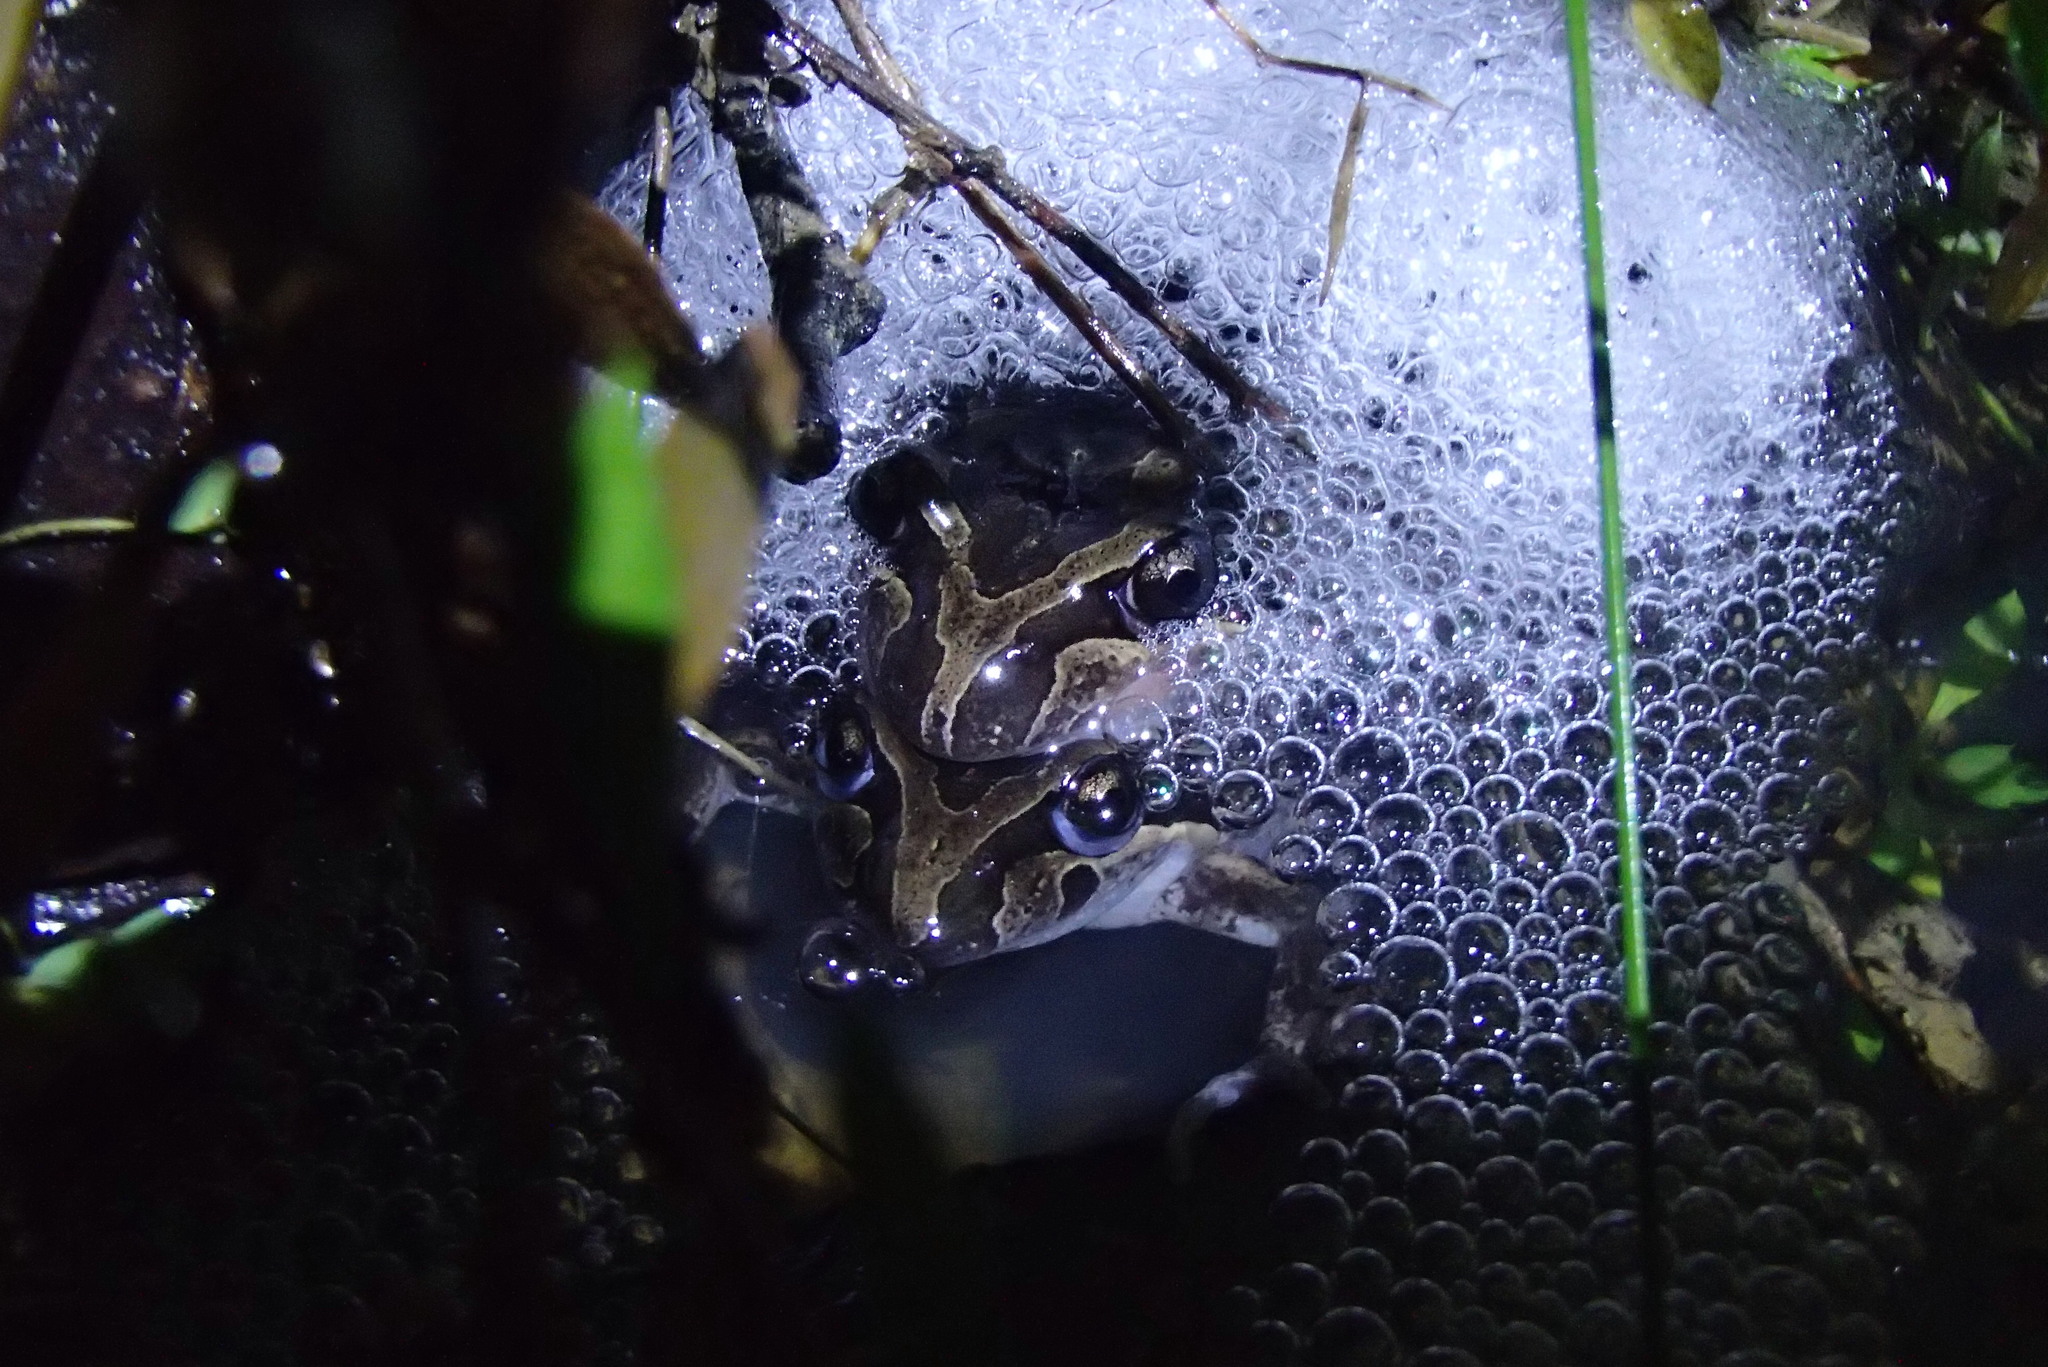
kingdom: Animalia
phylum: Chordata
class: Amphibia
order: Anura
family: Limnodynastidae
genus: Limnodynastes
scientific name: Limnodynastes peronii
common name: Brown frog
